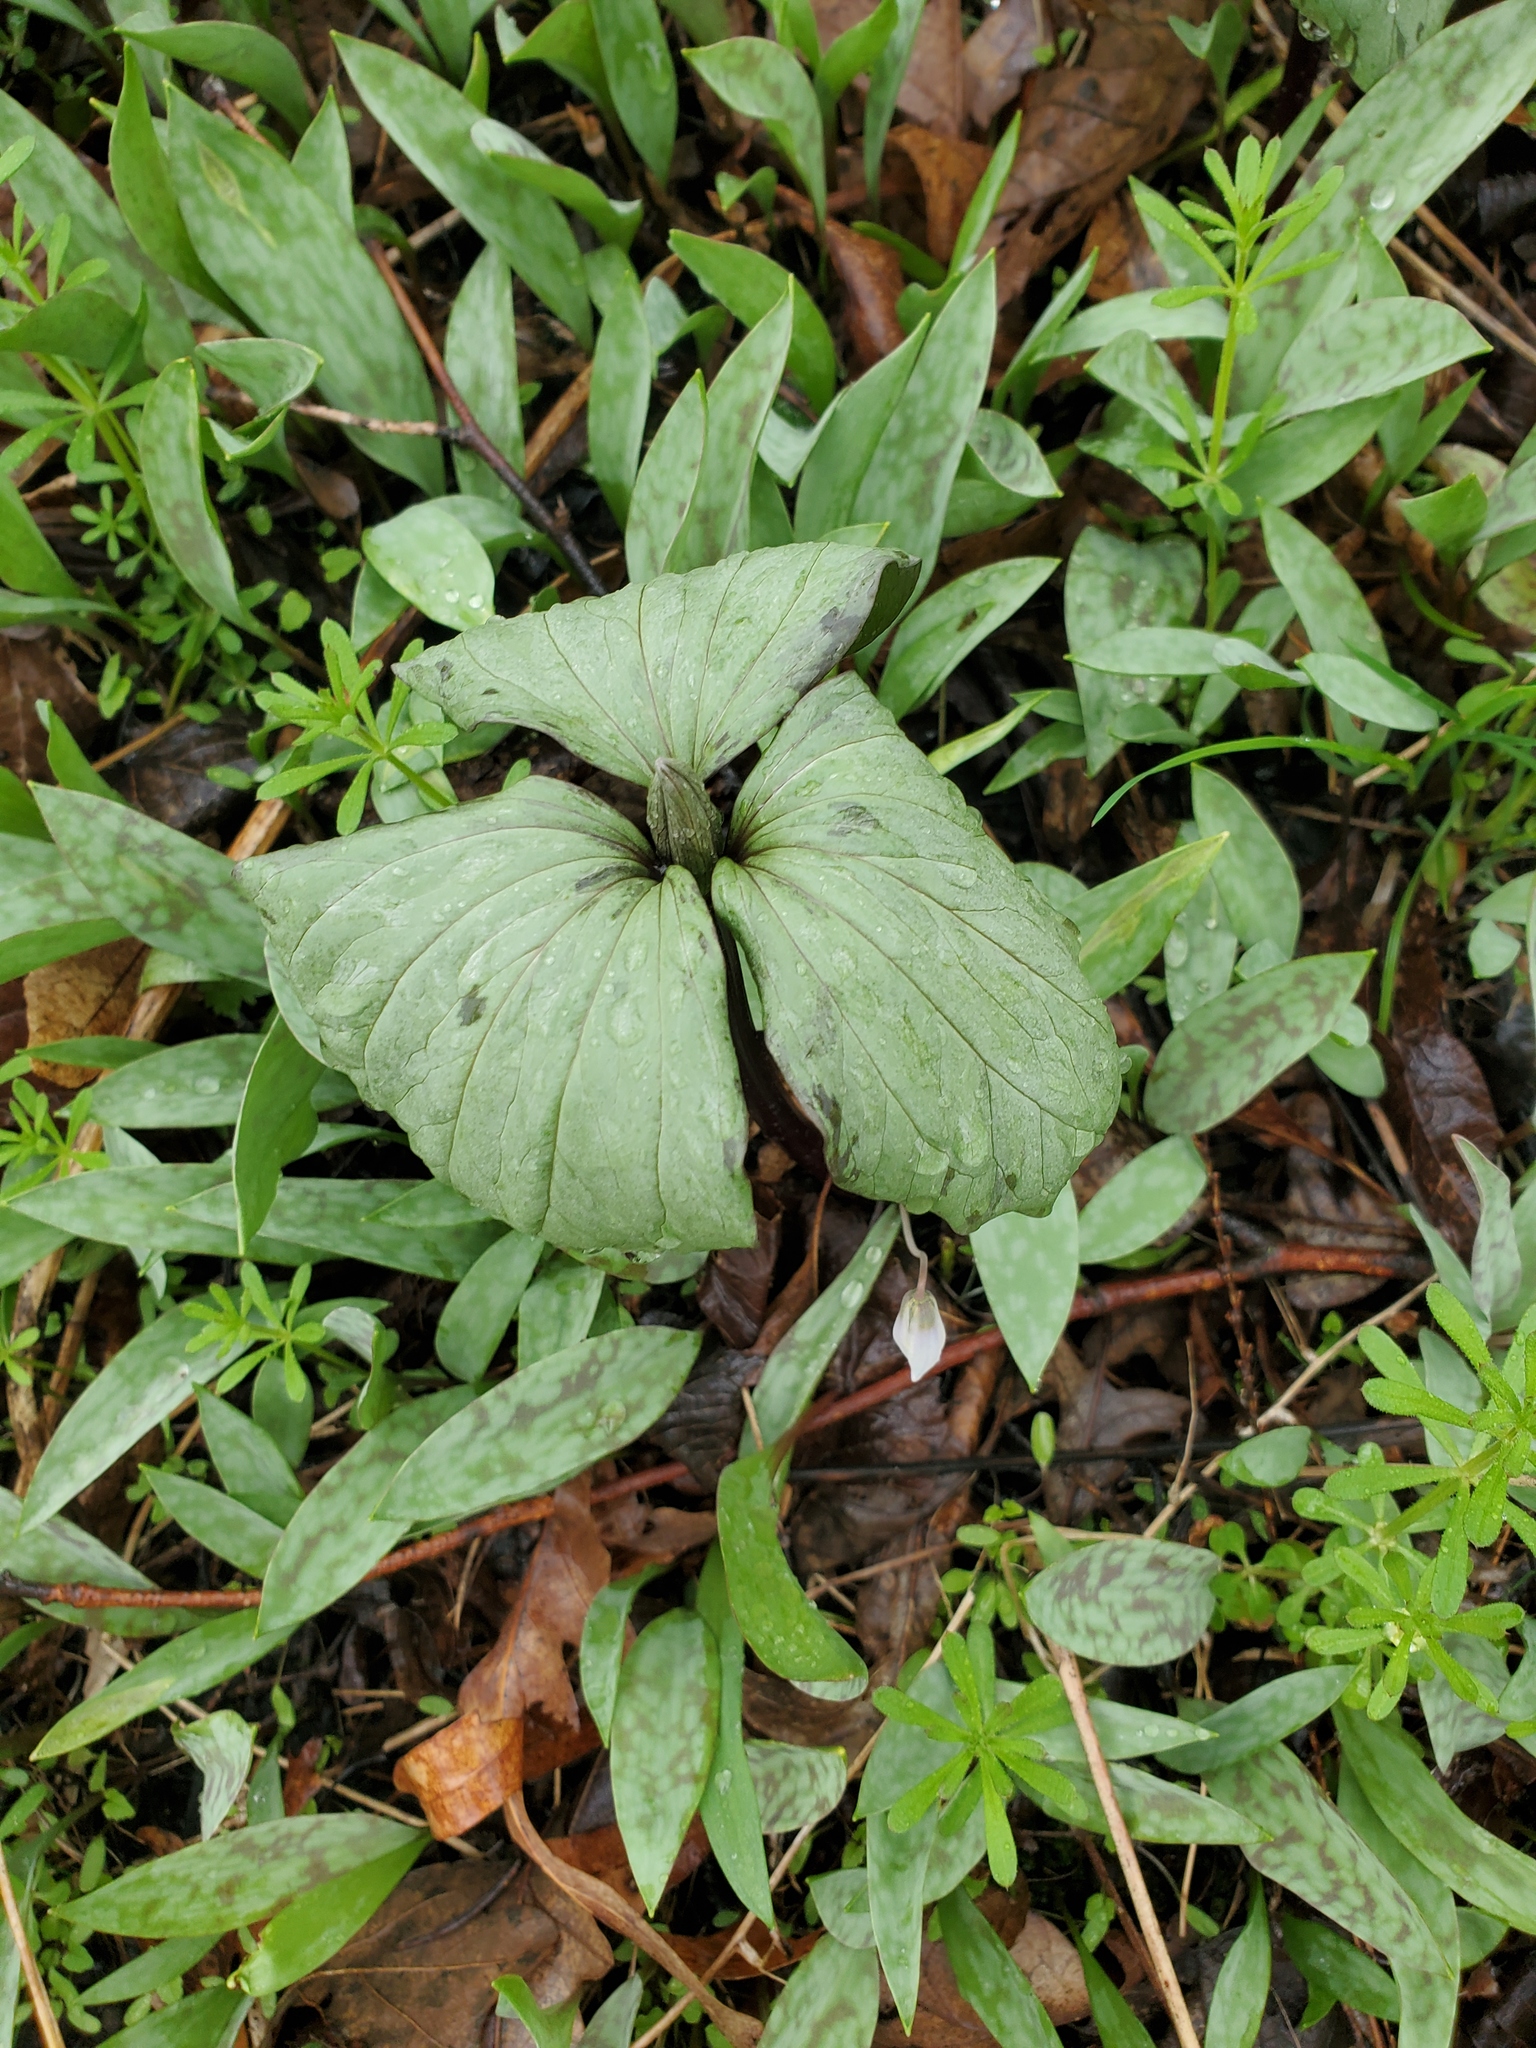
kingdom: Plantae
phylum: Tracheophyta
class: Liliopsida
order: Liliales
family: Melanthiaceae
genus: Trillium
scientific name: Trillium recurvatum
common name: Bloody butcher
